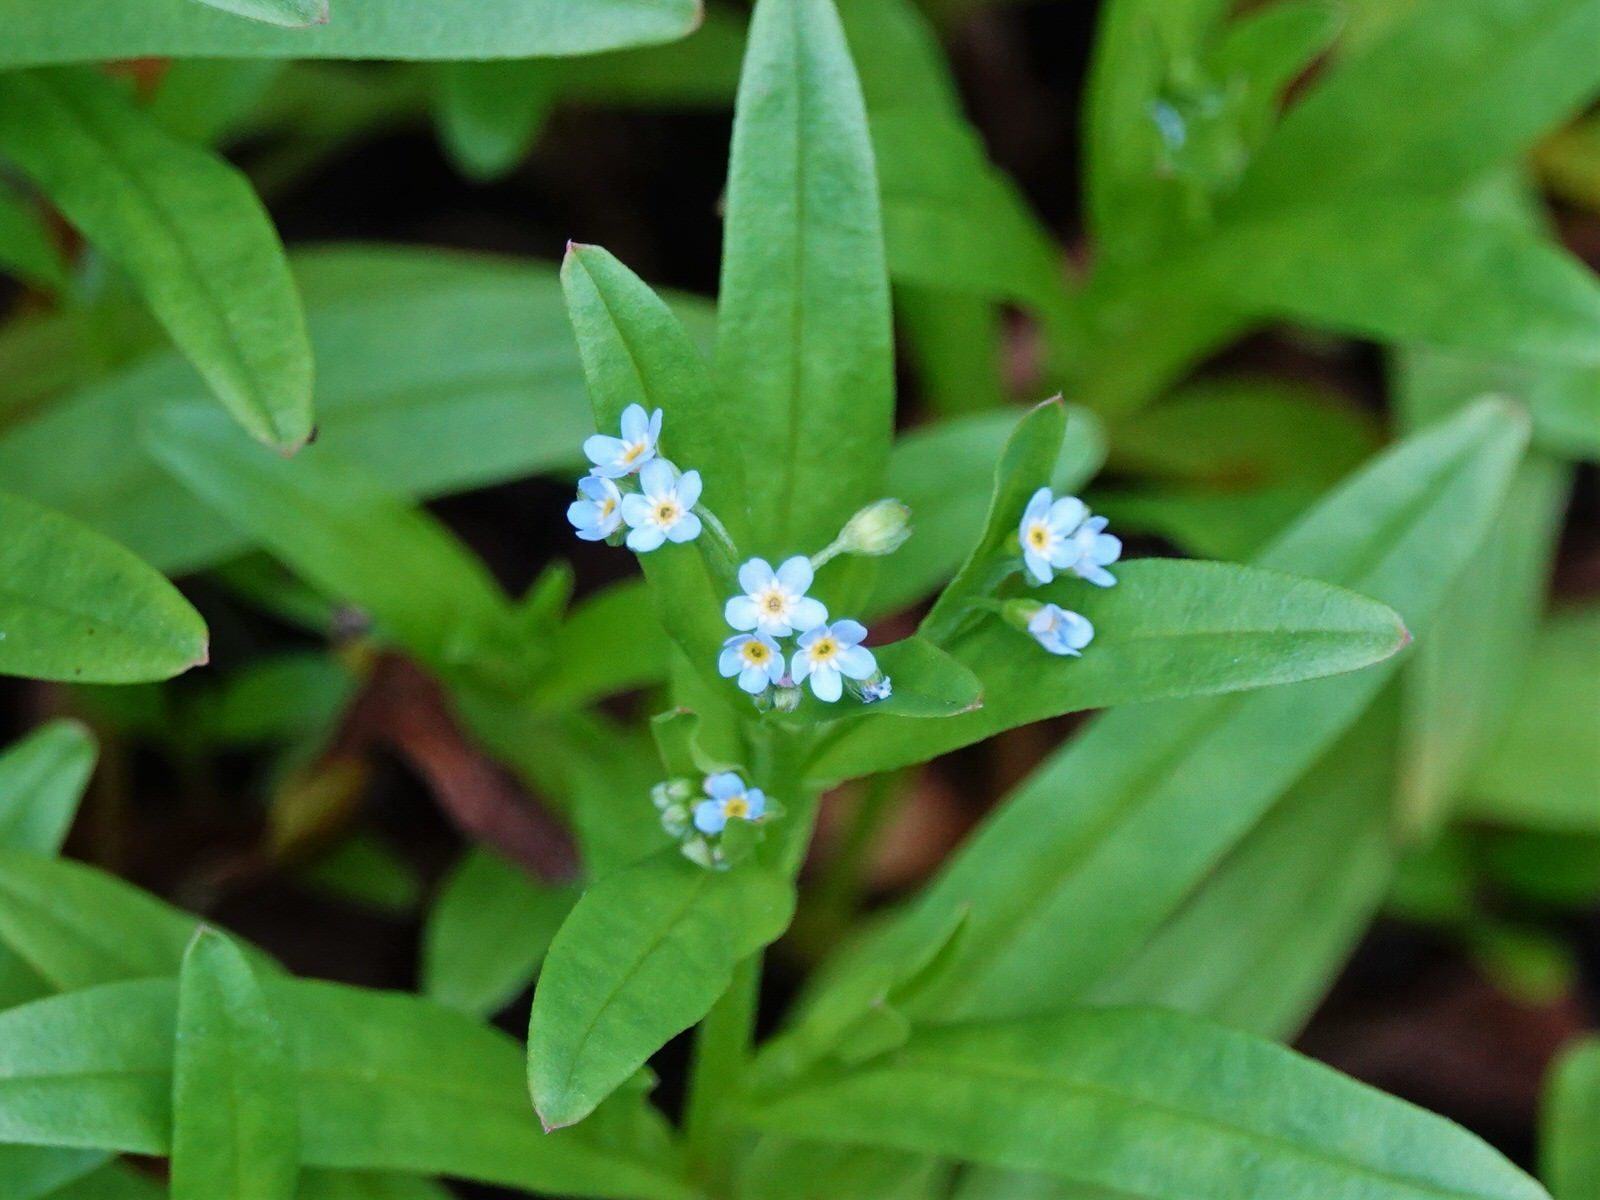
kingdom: Plantae
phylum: Tracheophyta
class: Magnoliopsida
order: Boraginales
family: Boraginaceae
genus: Myosotis
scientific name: Myosotis sylvatica
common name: Wood forget-me-not
